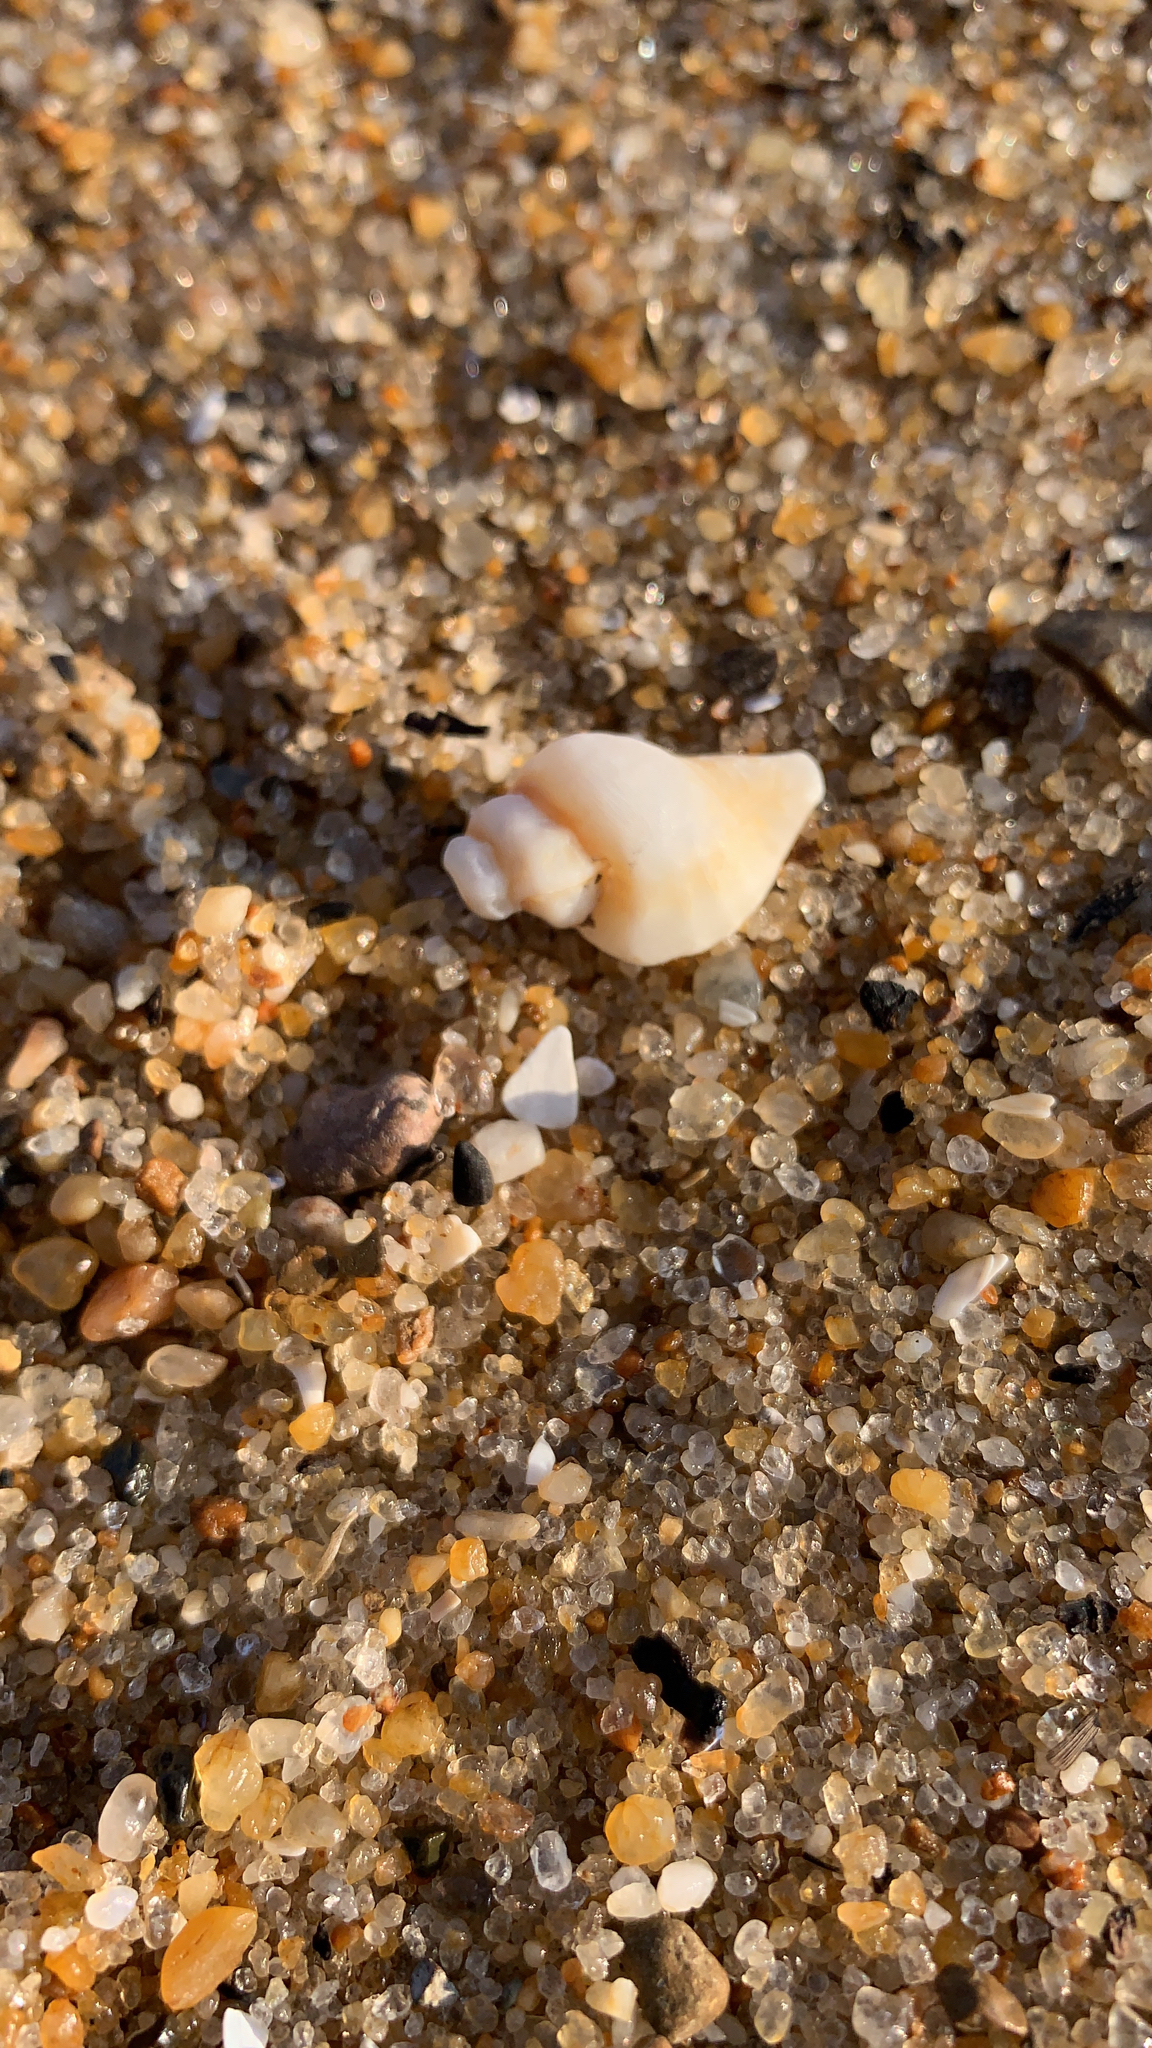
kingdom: Animalia
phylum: Mollusca
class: Gastropoda
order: Neogastropoda
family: Muricidae
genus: Eupleura
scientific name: Eupleura caudata
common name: Thick-lip drill
